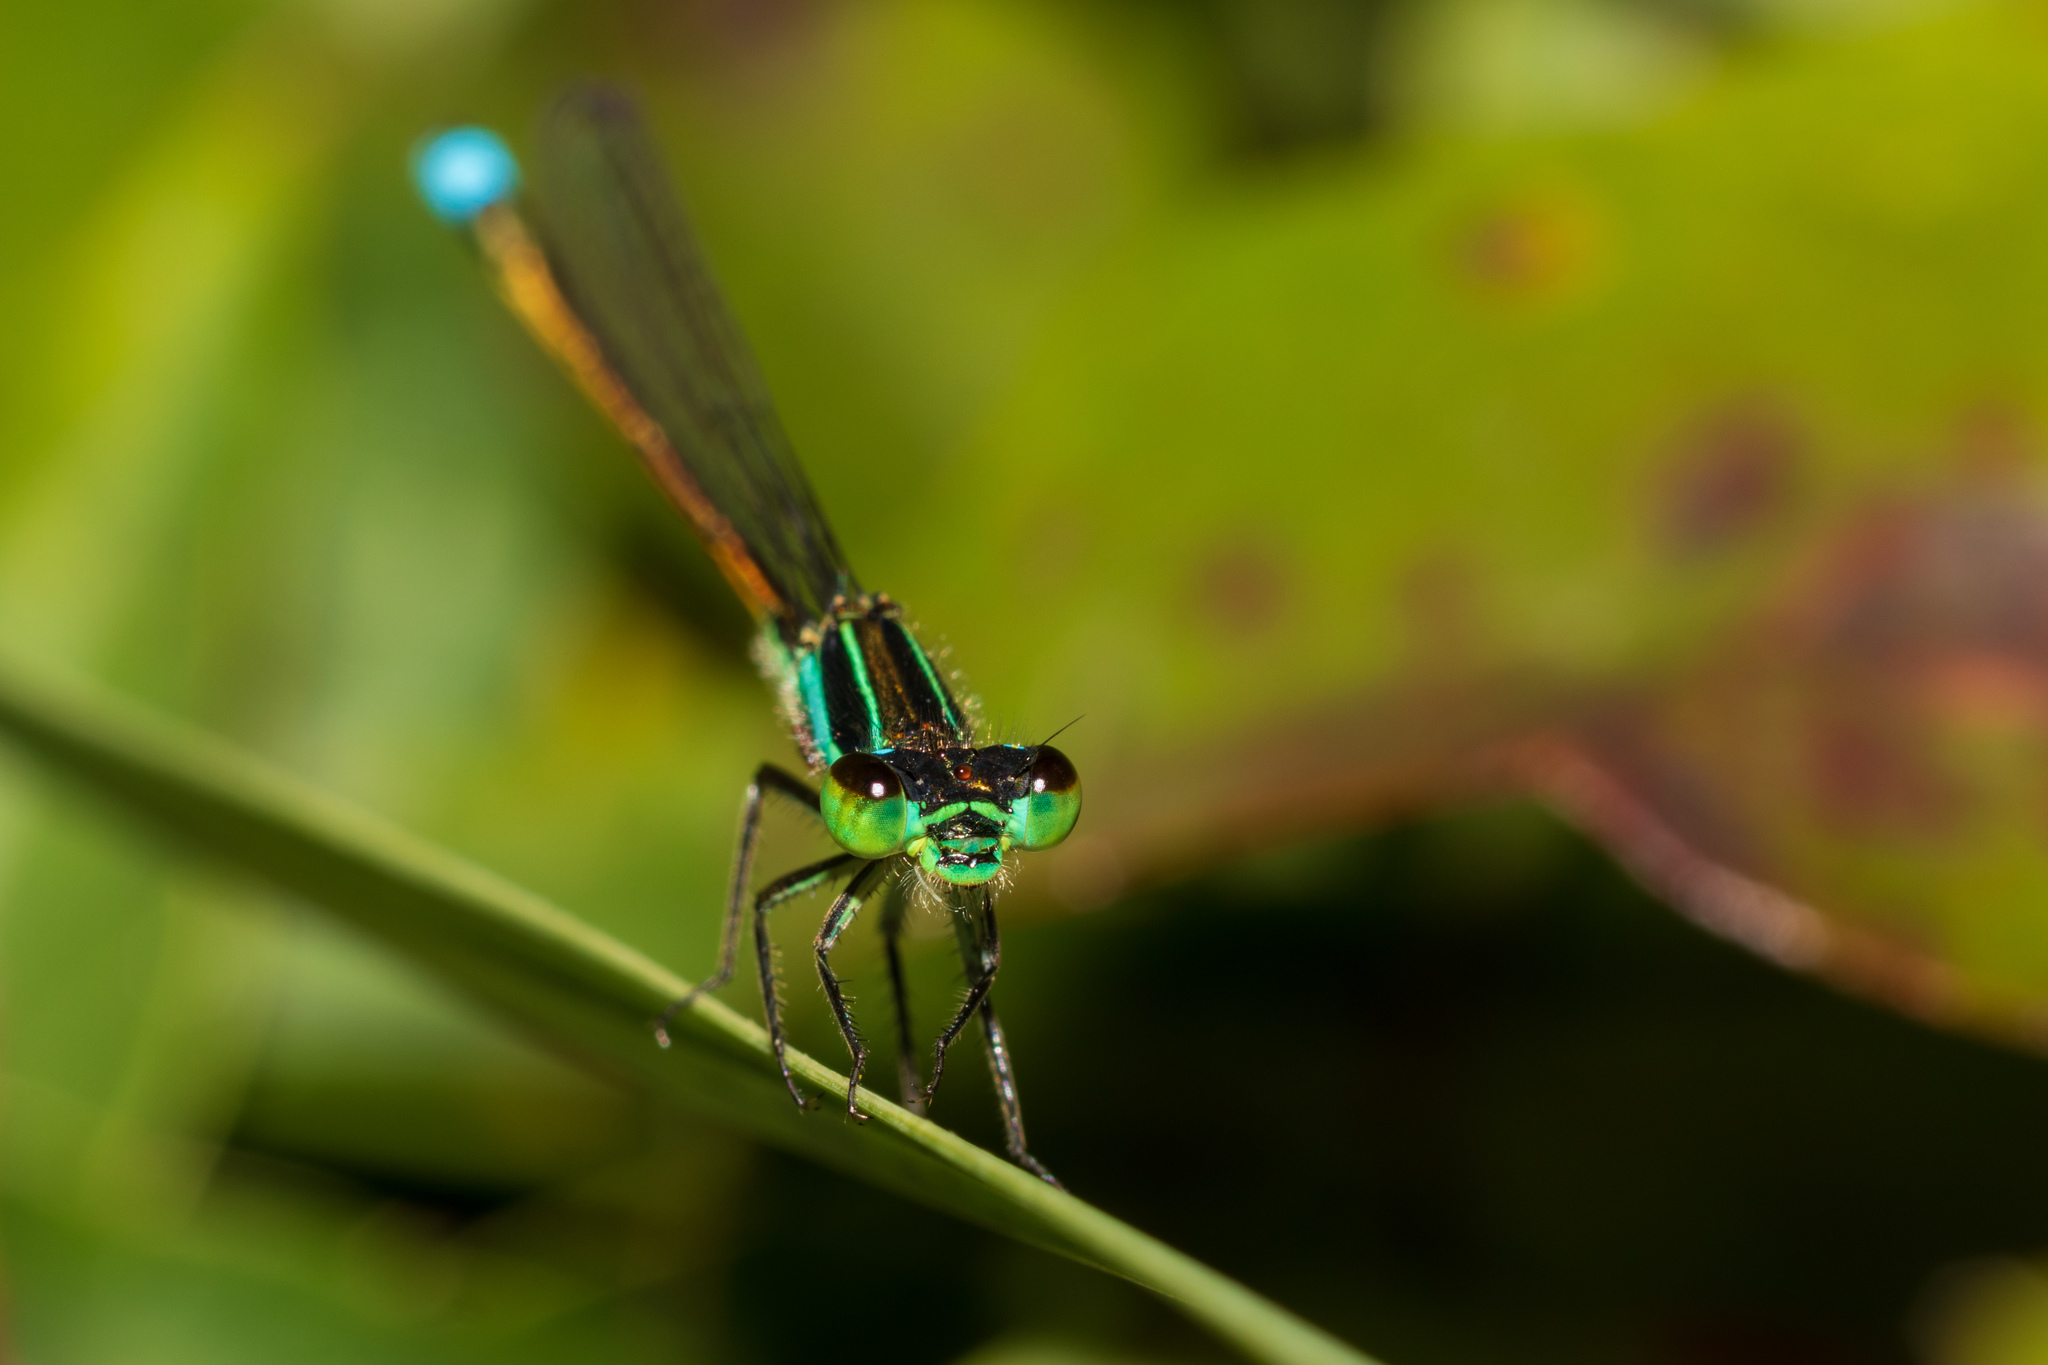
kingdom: Animalia
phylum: Arthropoda
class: Insecta
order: Odonata
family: Coenagrionidae
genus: Ischnura
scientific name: Ischnura ramburii
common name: Rambur's forktail
